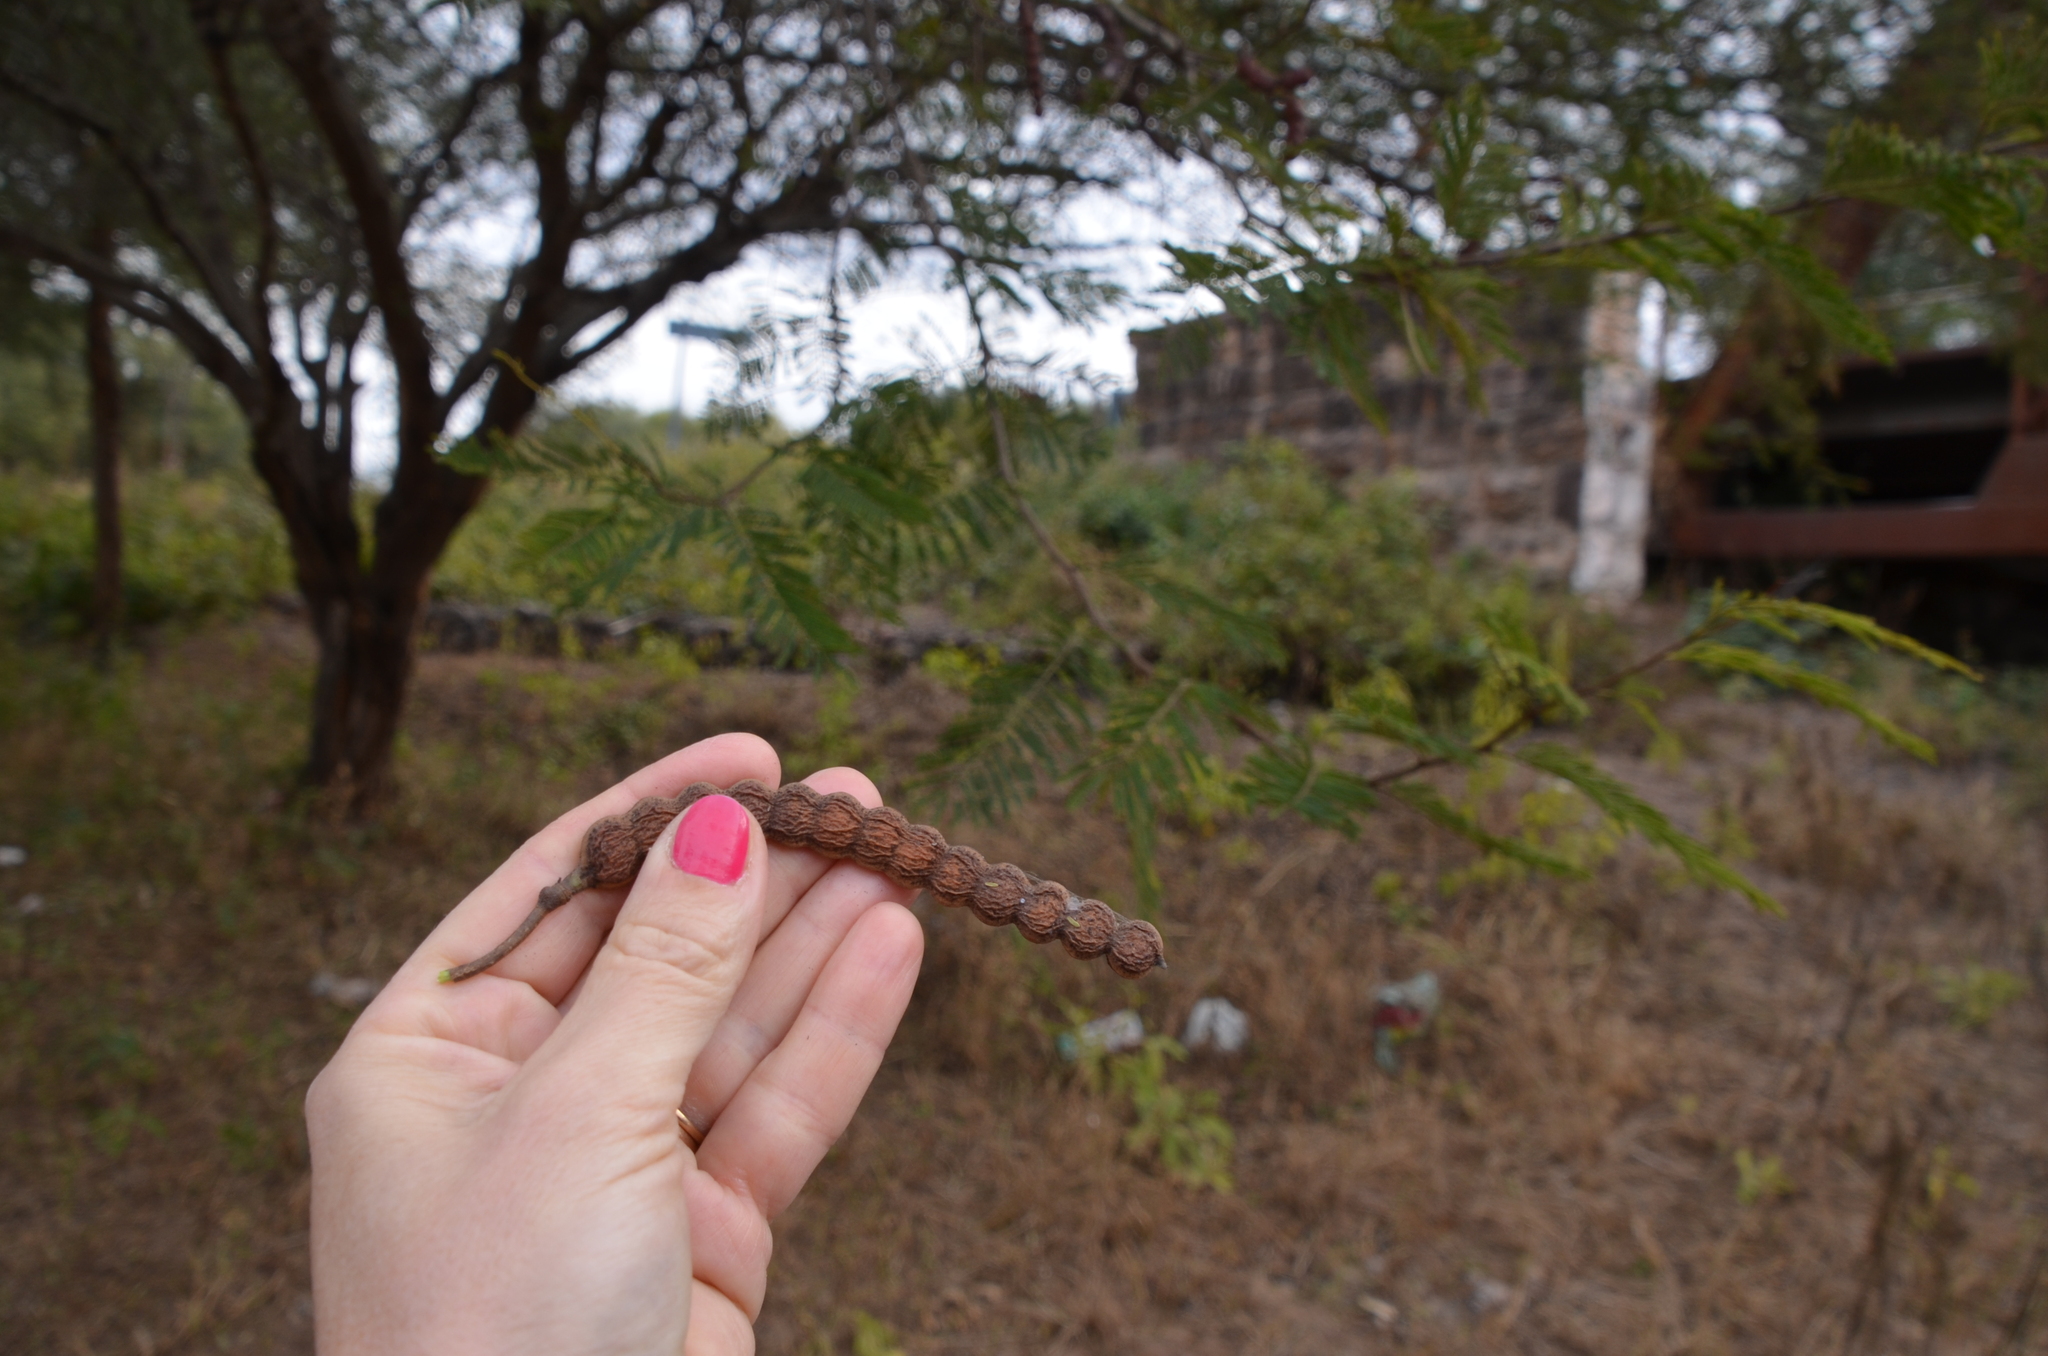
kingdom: Plantae
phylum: Tracheophyta
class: Magnoliopsida
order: Fabales
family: Fabaceae
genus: Vachellia
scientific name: Vachellia aroma
